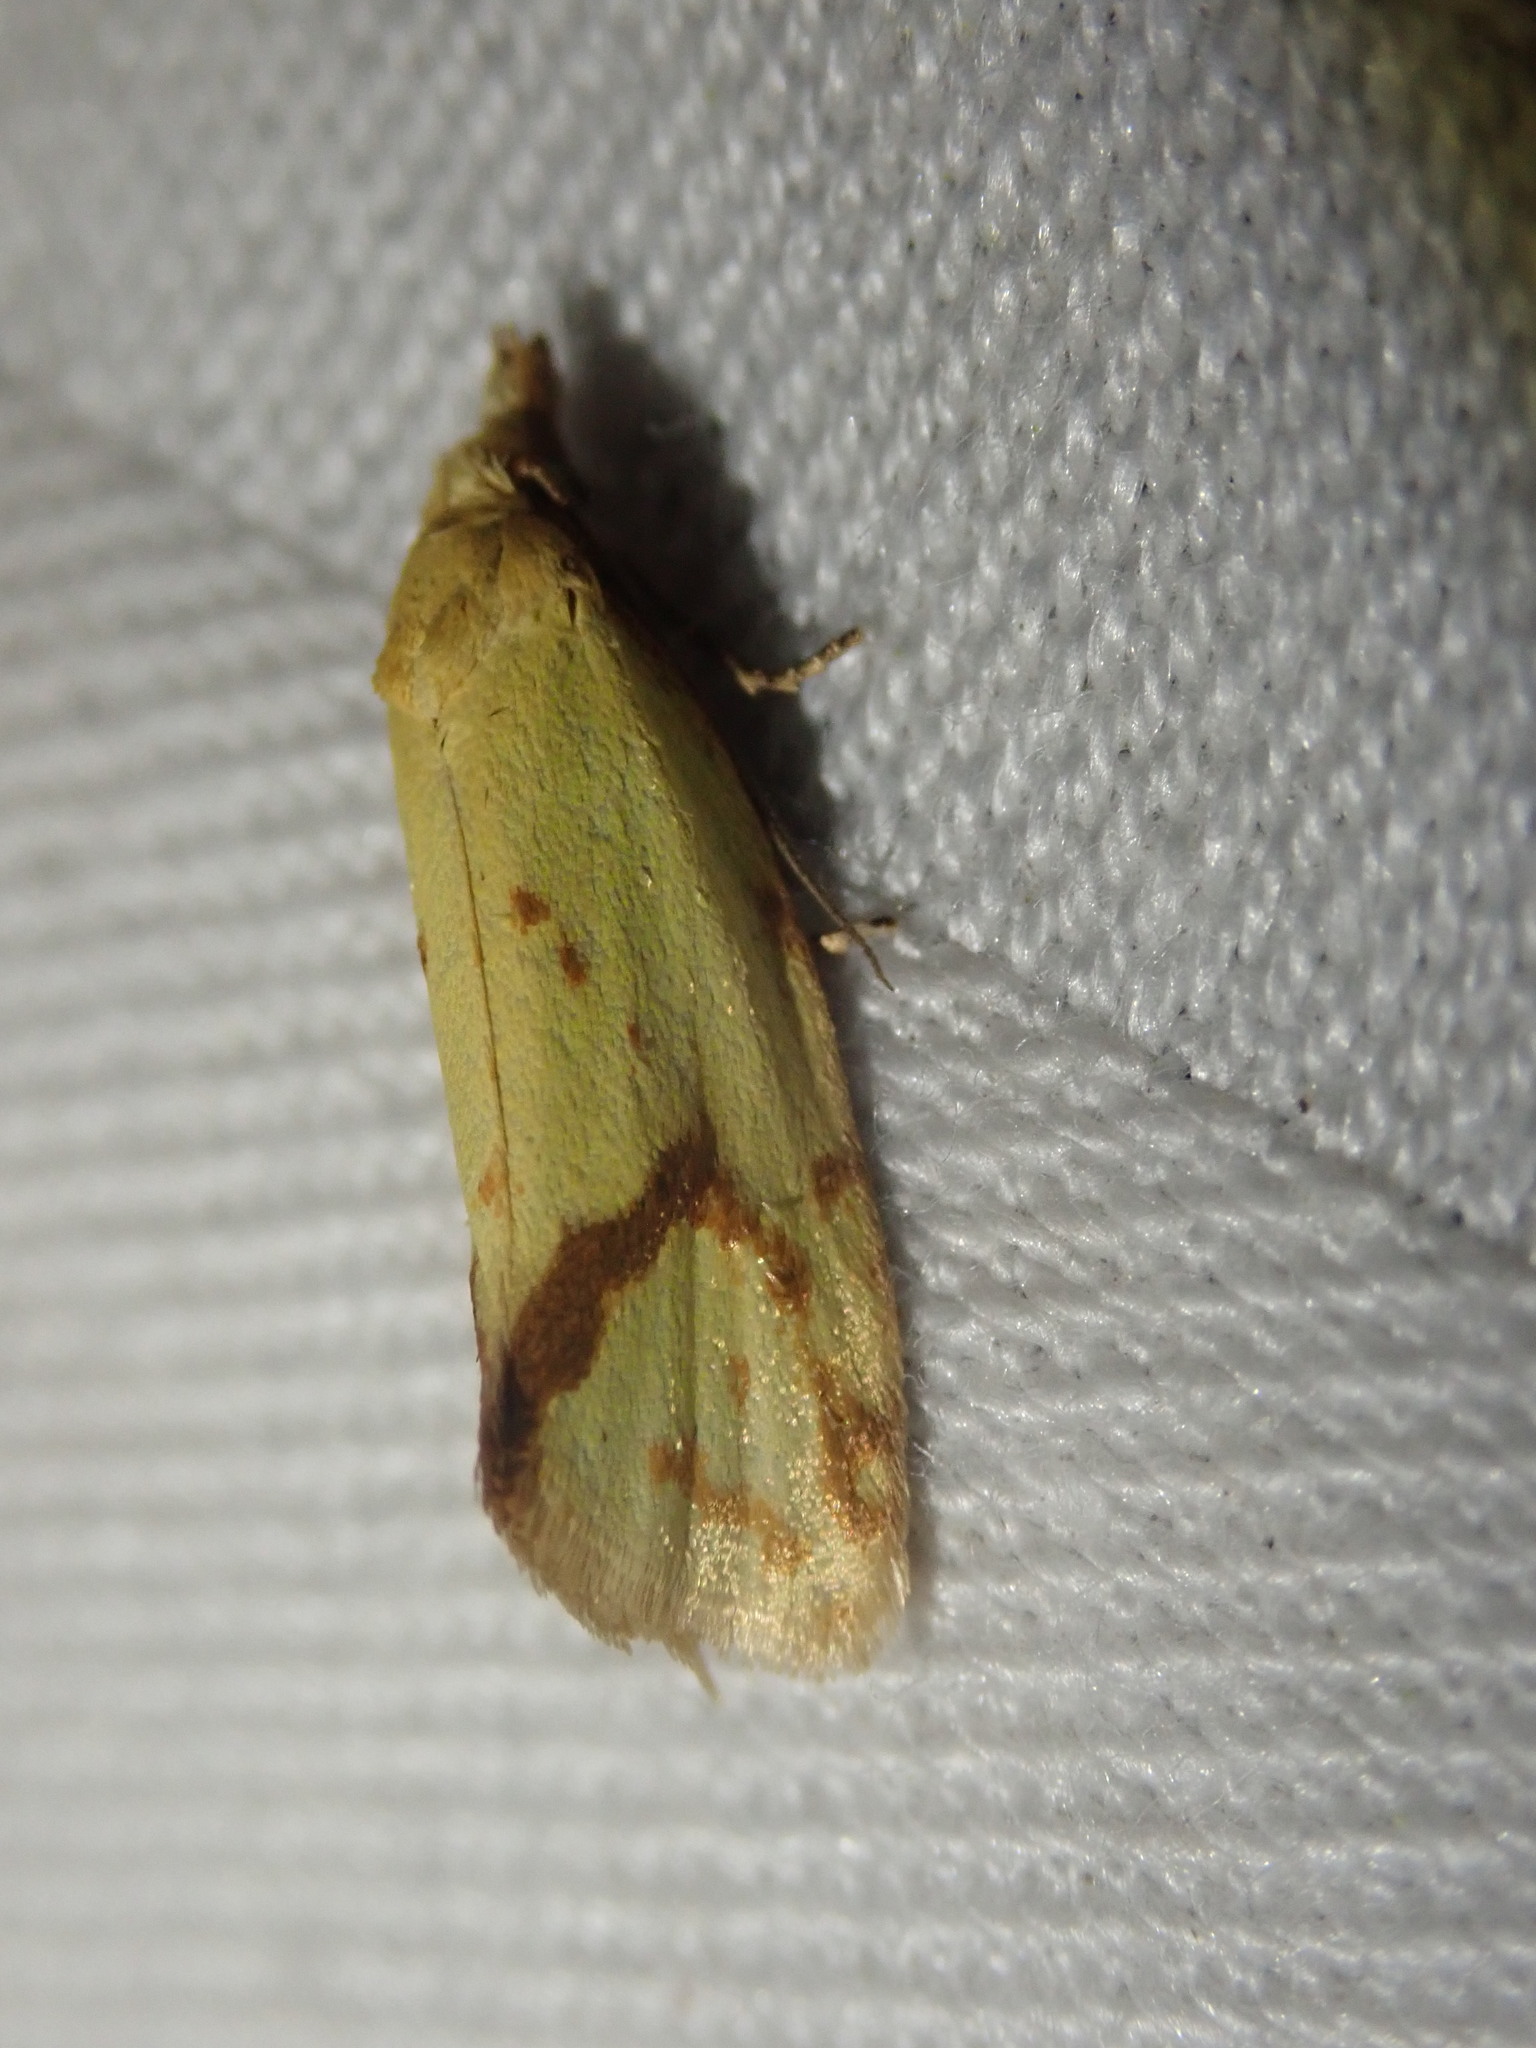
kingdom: Animalia
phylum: Arthropoda
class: Insecta
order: Lepidoptera
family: Tortricidae
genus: Agapeta
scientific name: Agapeta hamana
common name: Common yellow conch
